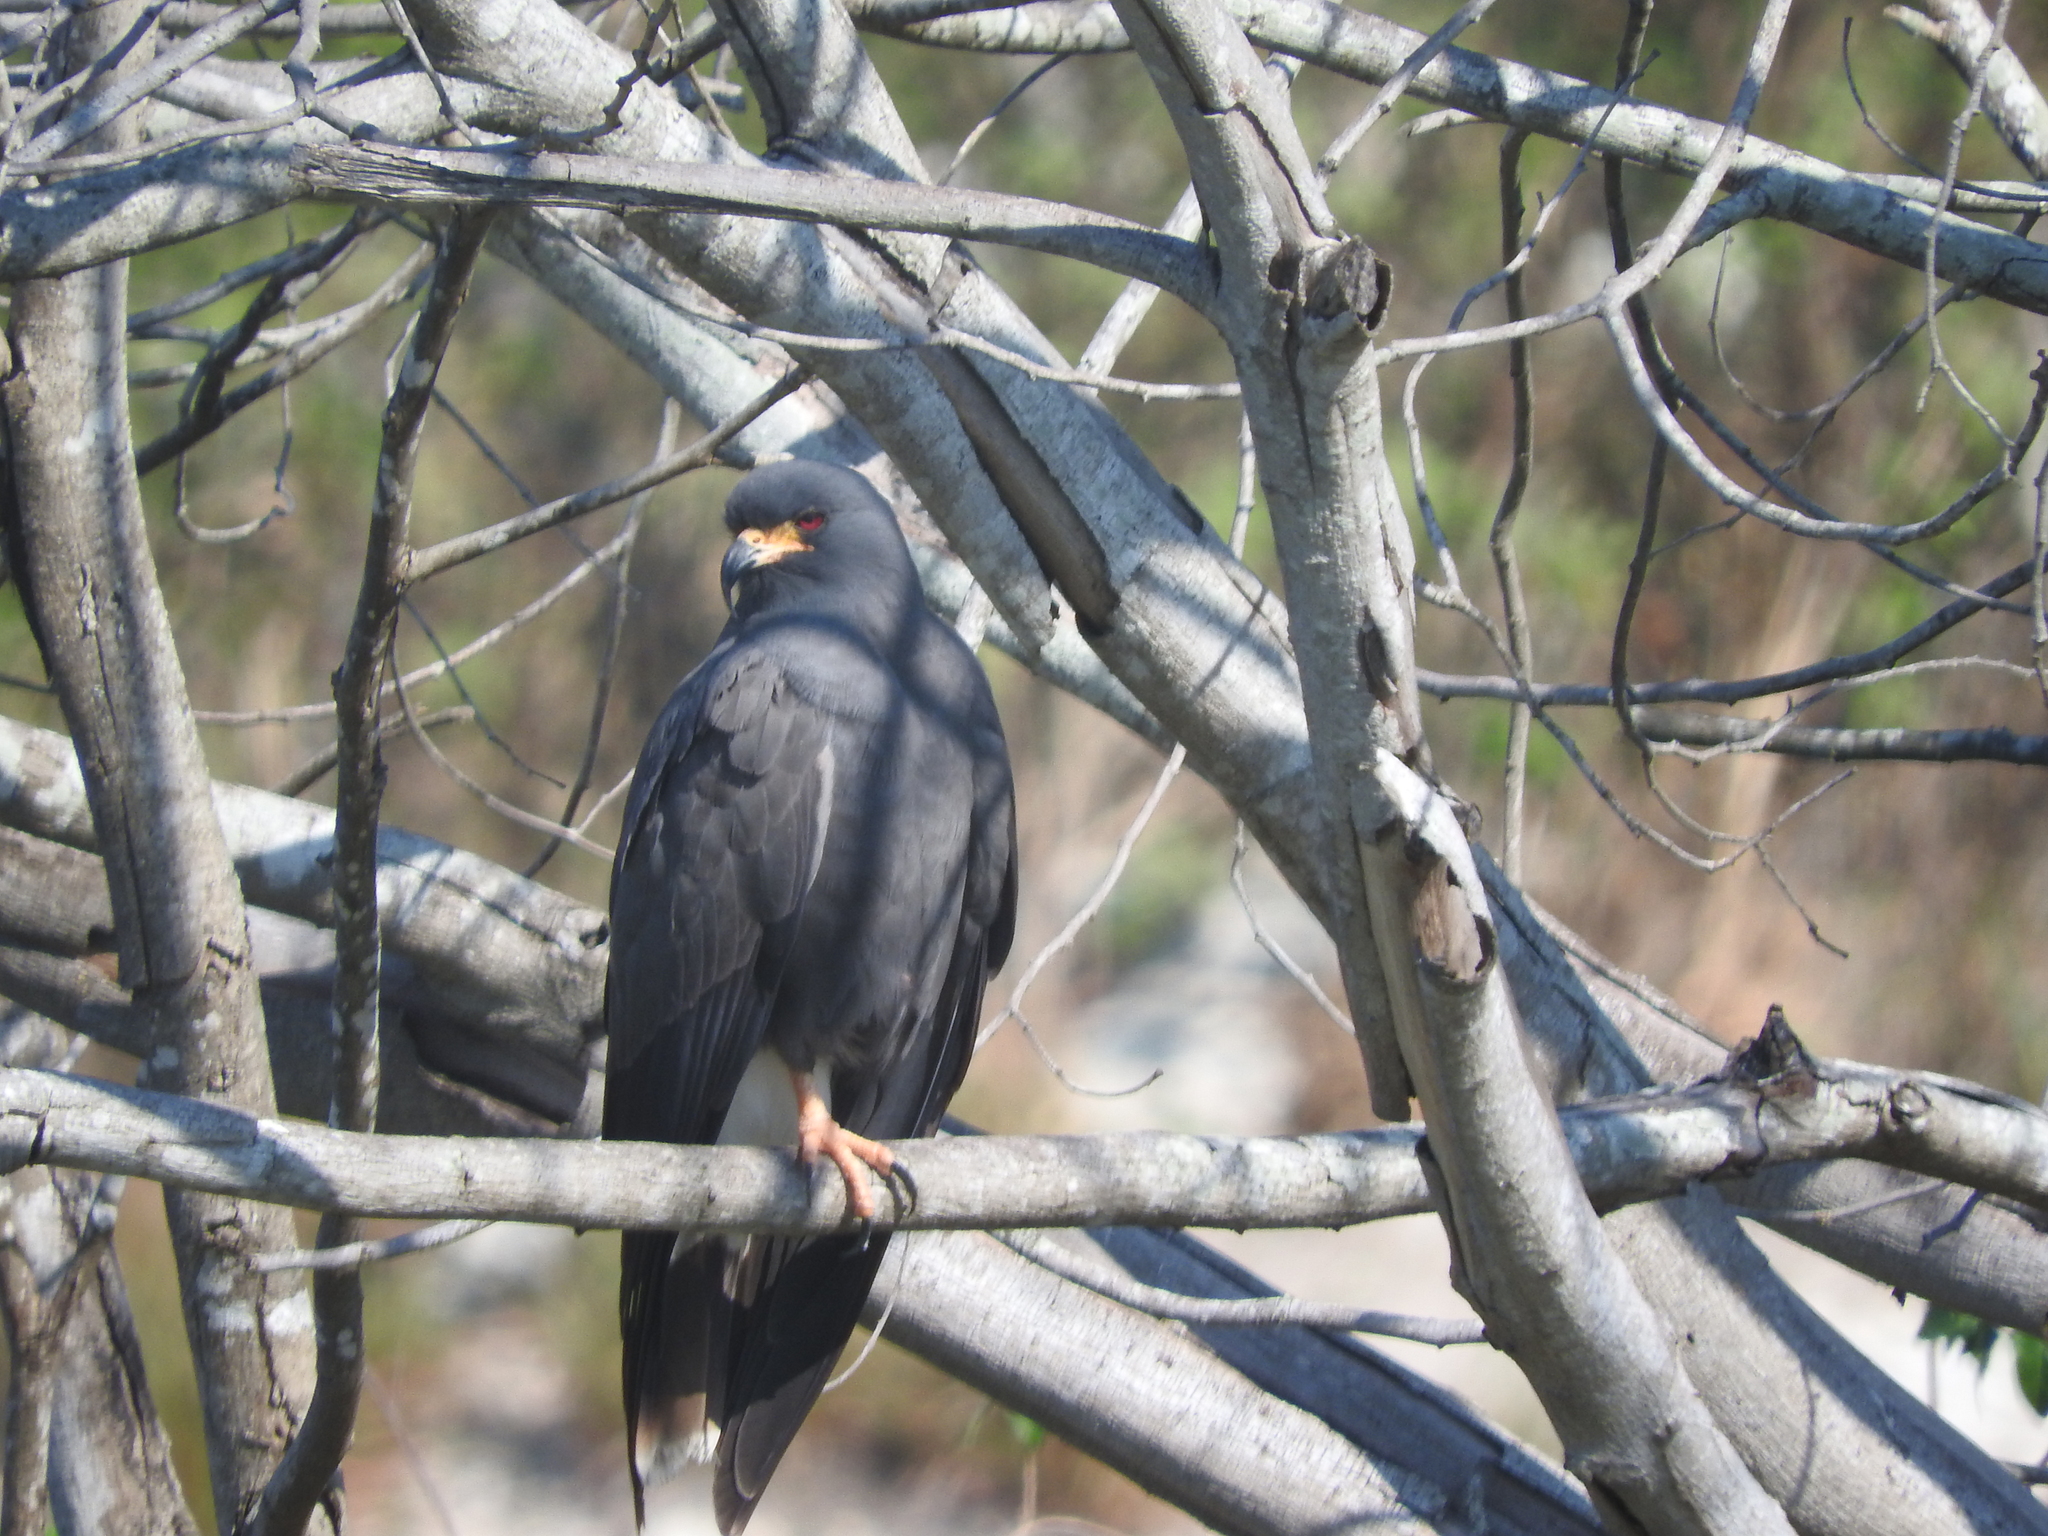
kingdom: Animalia
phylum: Chordata
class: Aves
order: Accipitriformes
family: Accipitridae
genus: Rostrhamus
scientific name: Rostrhamus sociabilis
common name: Snail kite
